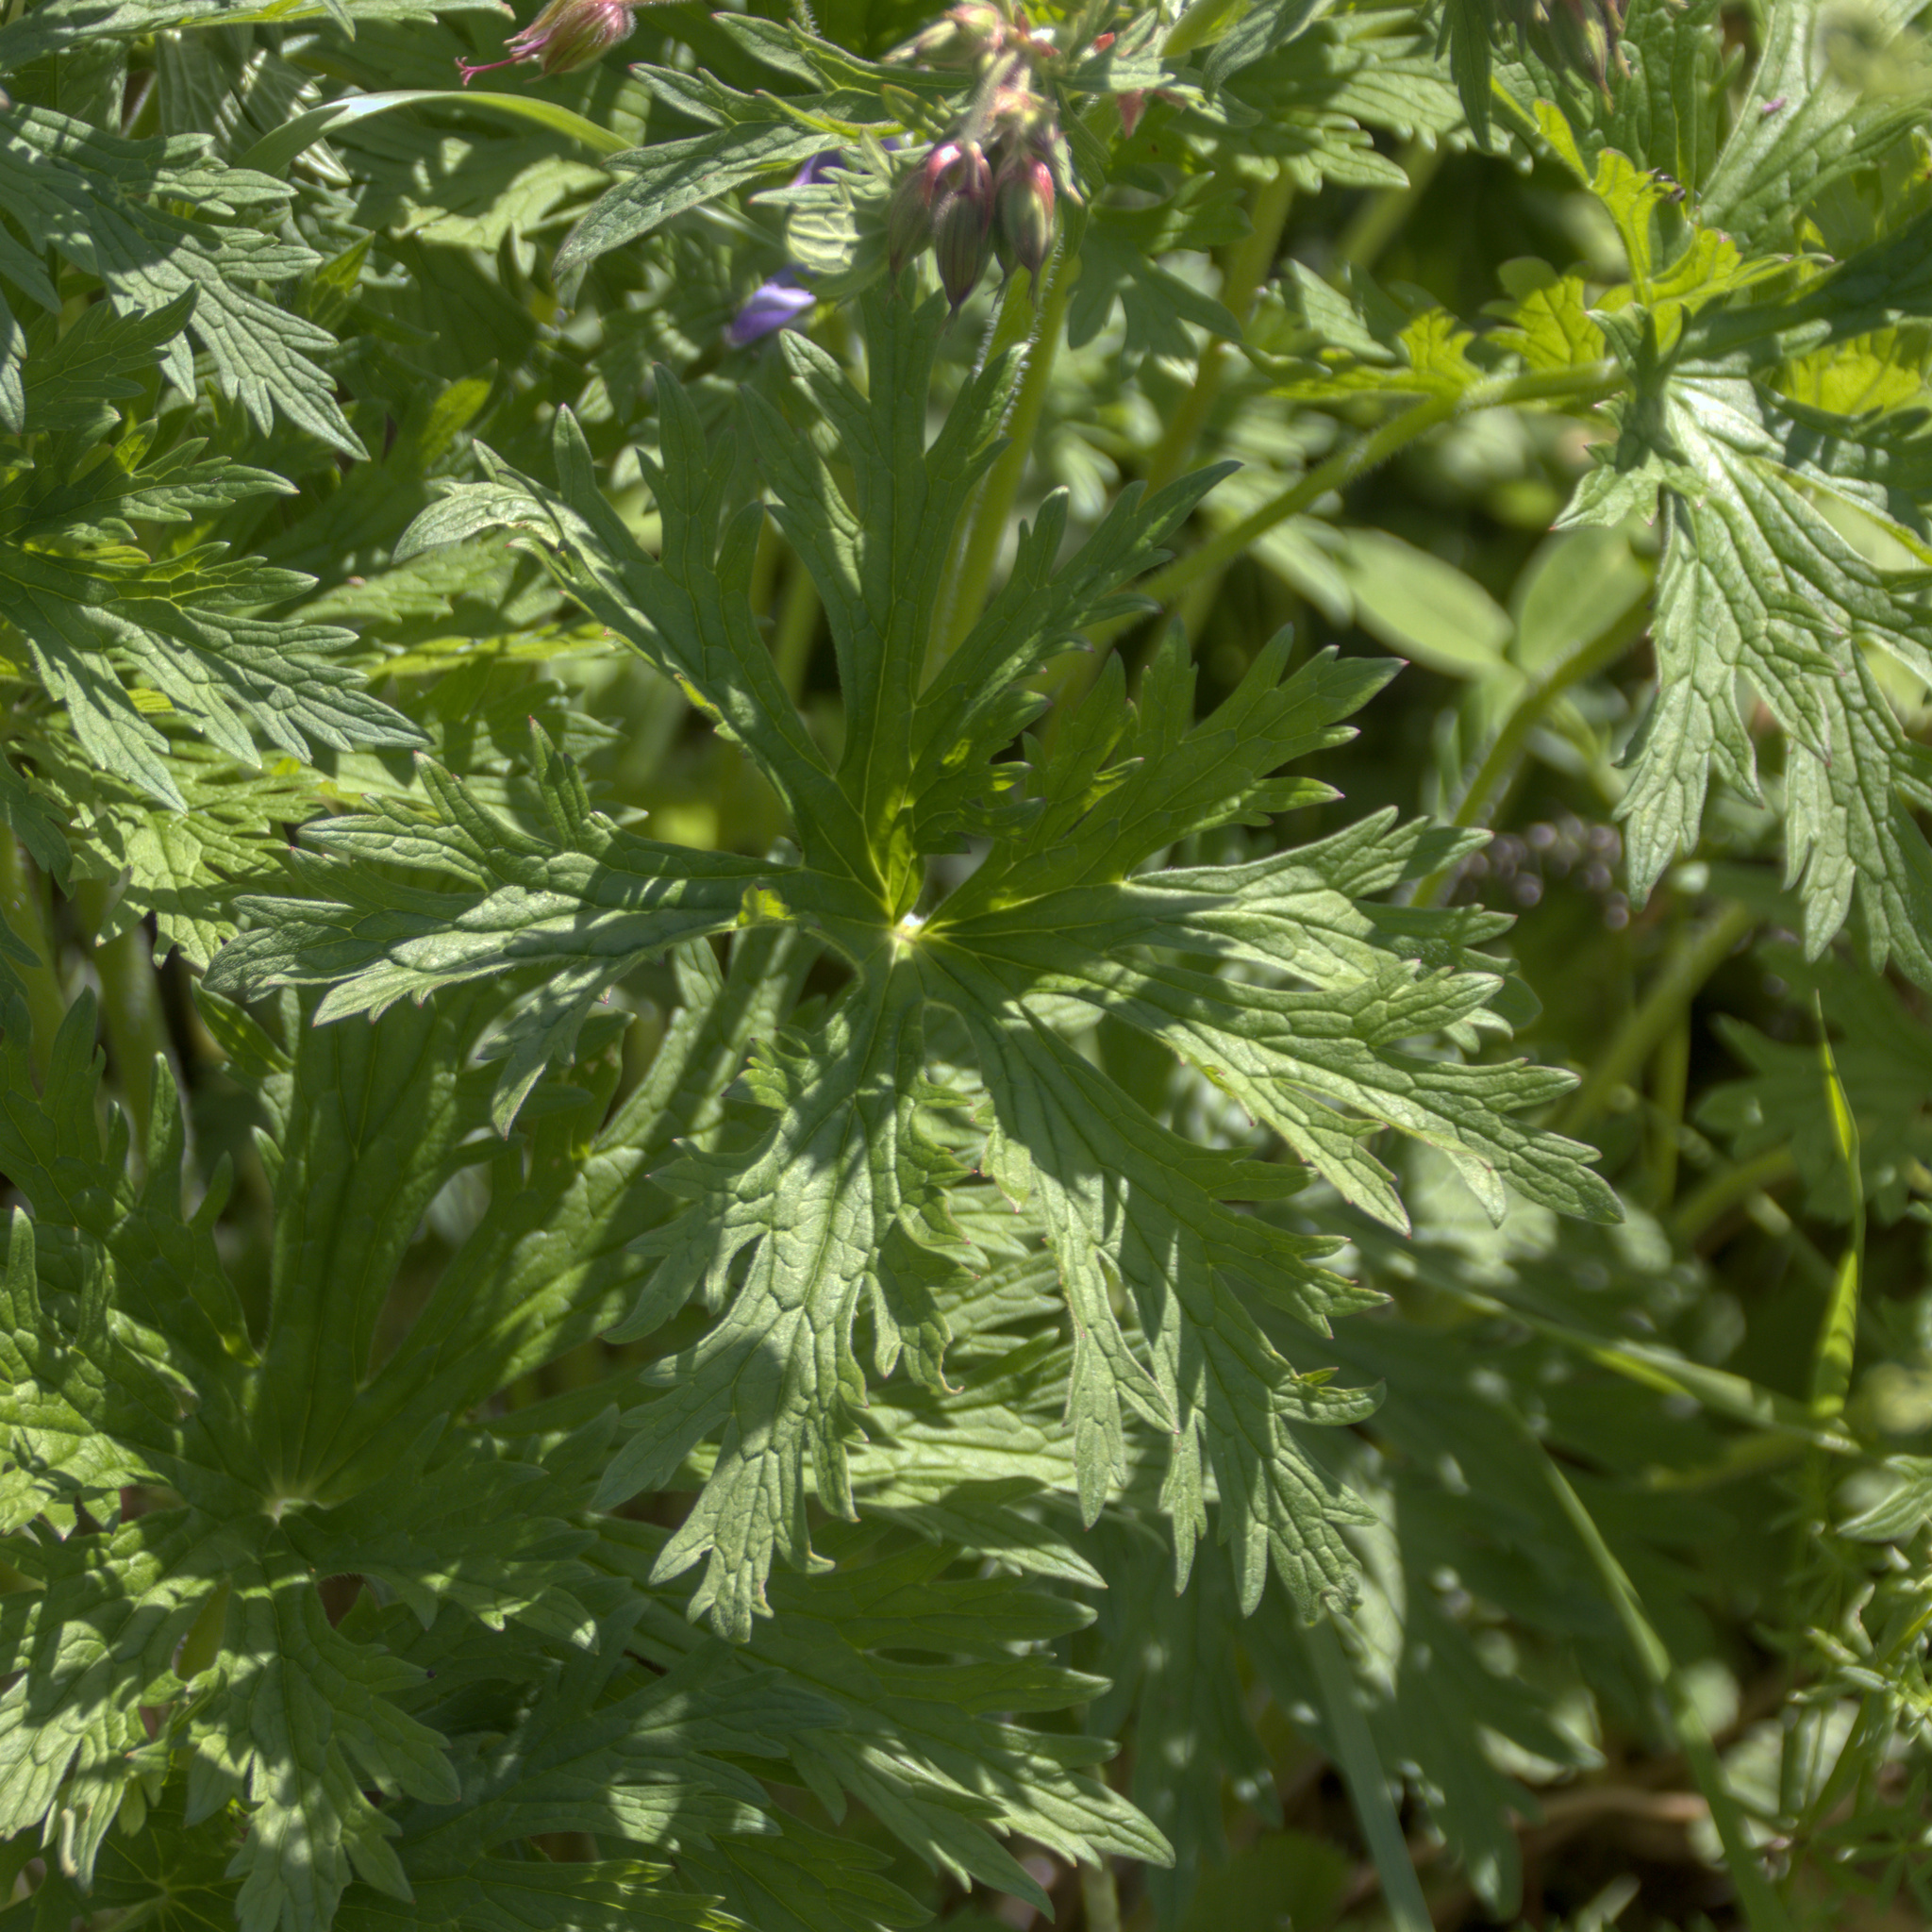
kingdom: Plantae
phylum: Tracheophyta
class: Magnoliopsida
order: Geraniales
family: Geraniaceae
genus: Geranium
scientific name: Geranium pratense
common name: Meadow crane's-bill
